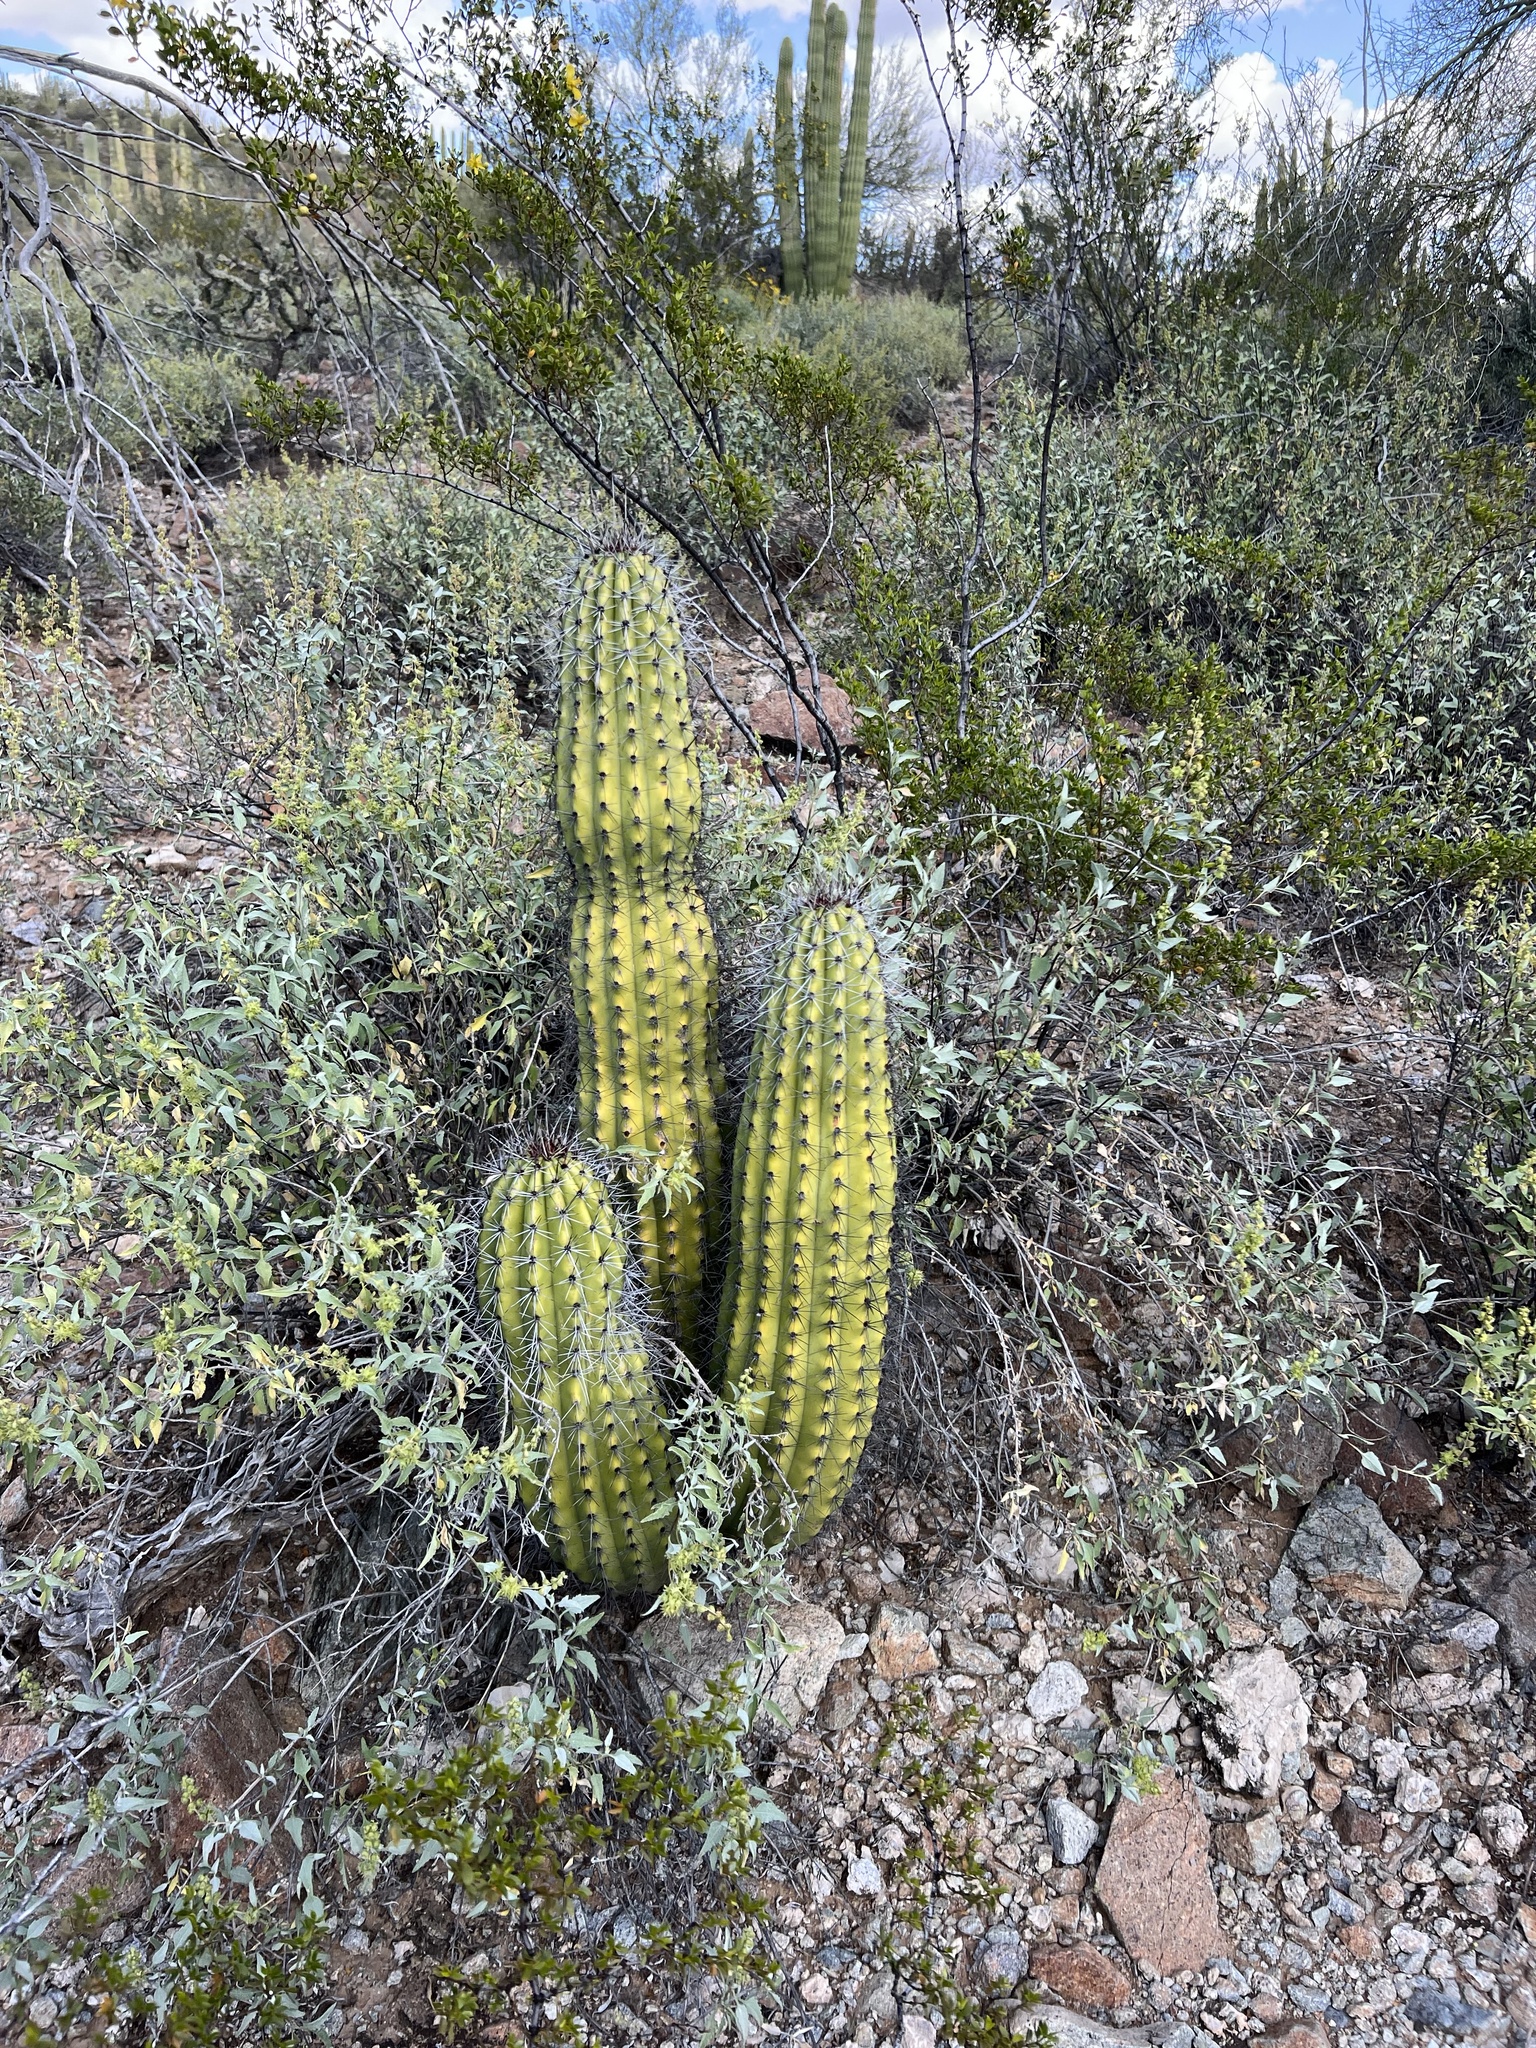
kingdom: Plantae
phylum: Tracheophyta
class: Magnoliopsida
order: Caryophyllales
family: Cactaceae
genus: Stenocereus
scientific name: Stenocereus thurberi
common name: Organ pipe cactus
